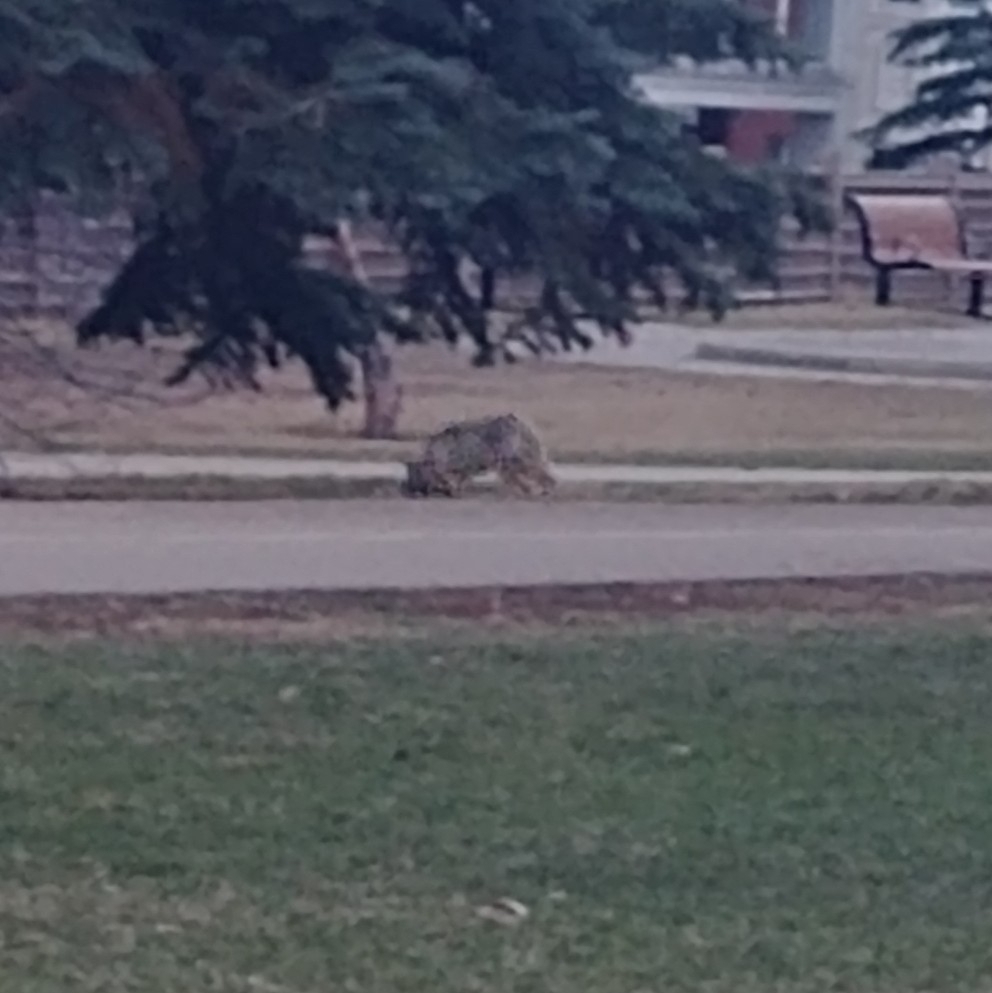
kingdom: Animalia
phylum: Chordata
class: Mammalia
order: Carnivora
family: Canidae
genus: Canis
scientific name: Canis latrans
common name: Coyote
